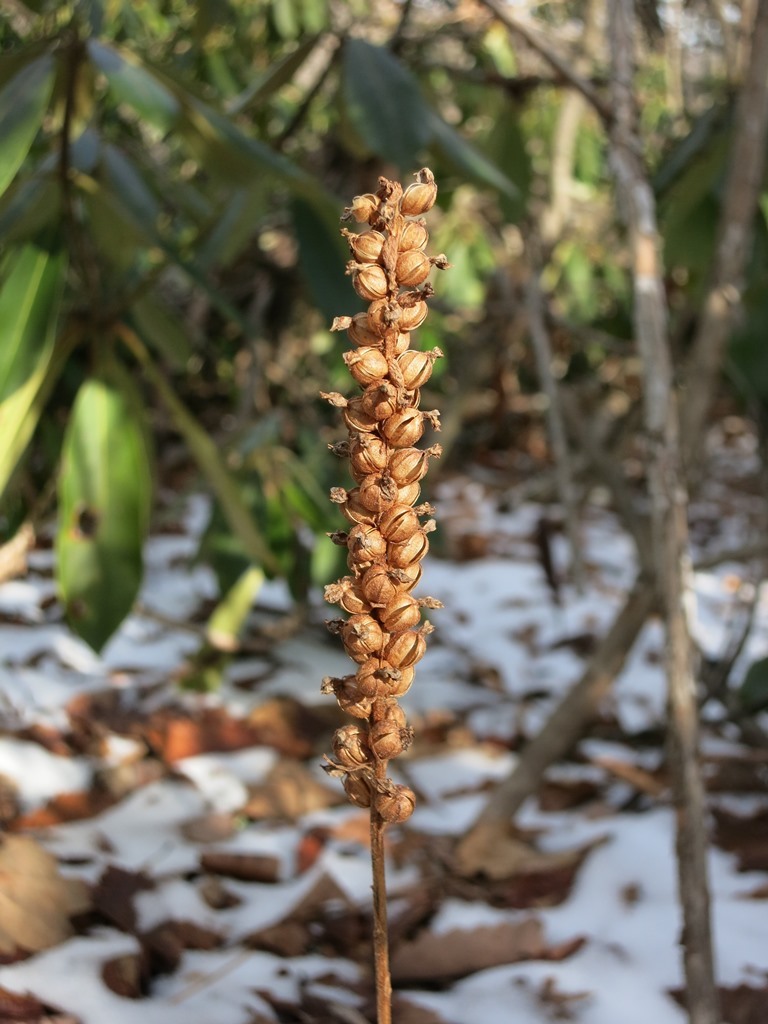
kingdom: Plantae
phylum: Tracheophyta
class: Liliopsida
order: Asparagales
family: Orchidaceae
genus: Goodyera
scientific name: Goodyera pubescens
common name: Downy rattlesnake-plantain
